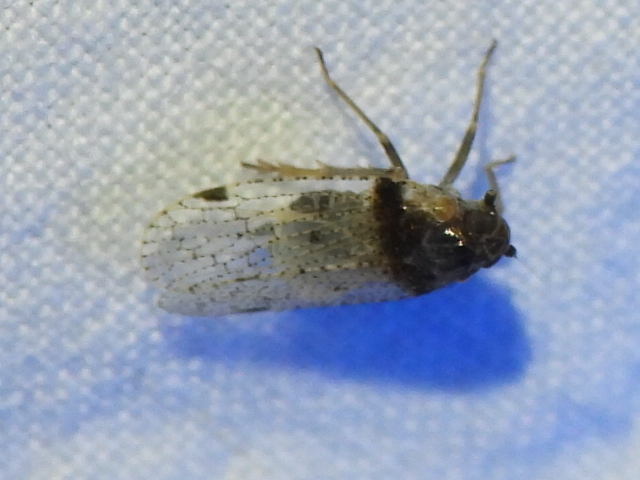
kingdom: Animalia
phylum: Arthropoda
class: Insecta
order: Hemiptera
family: Cixiidae
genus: Cixius
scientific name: Cixius stigmatus
